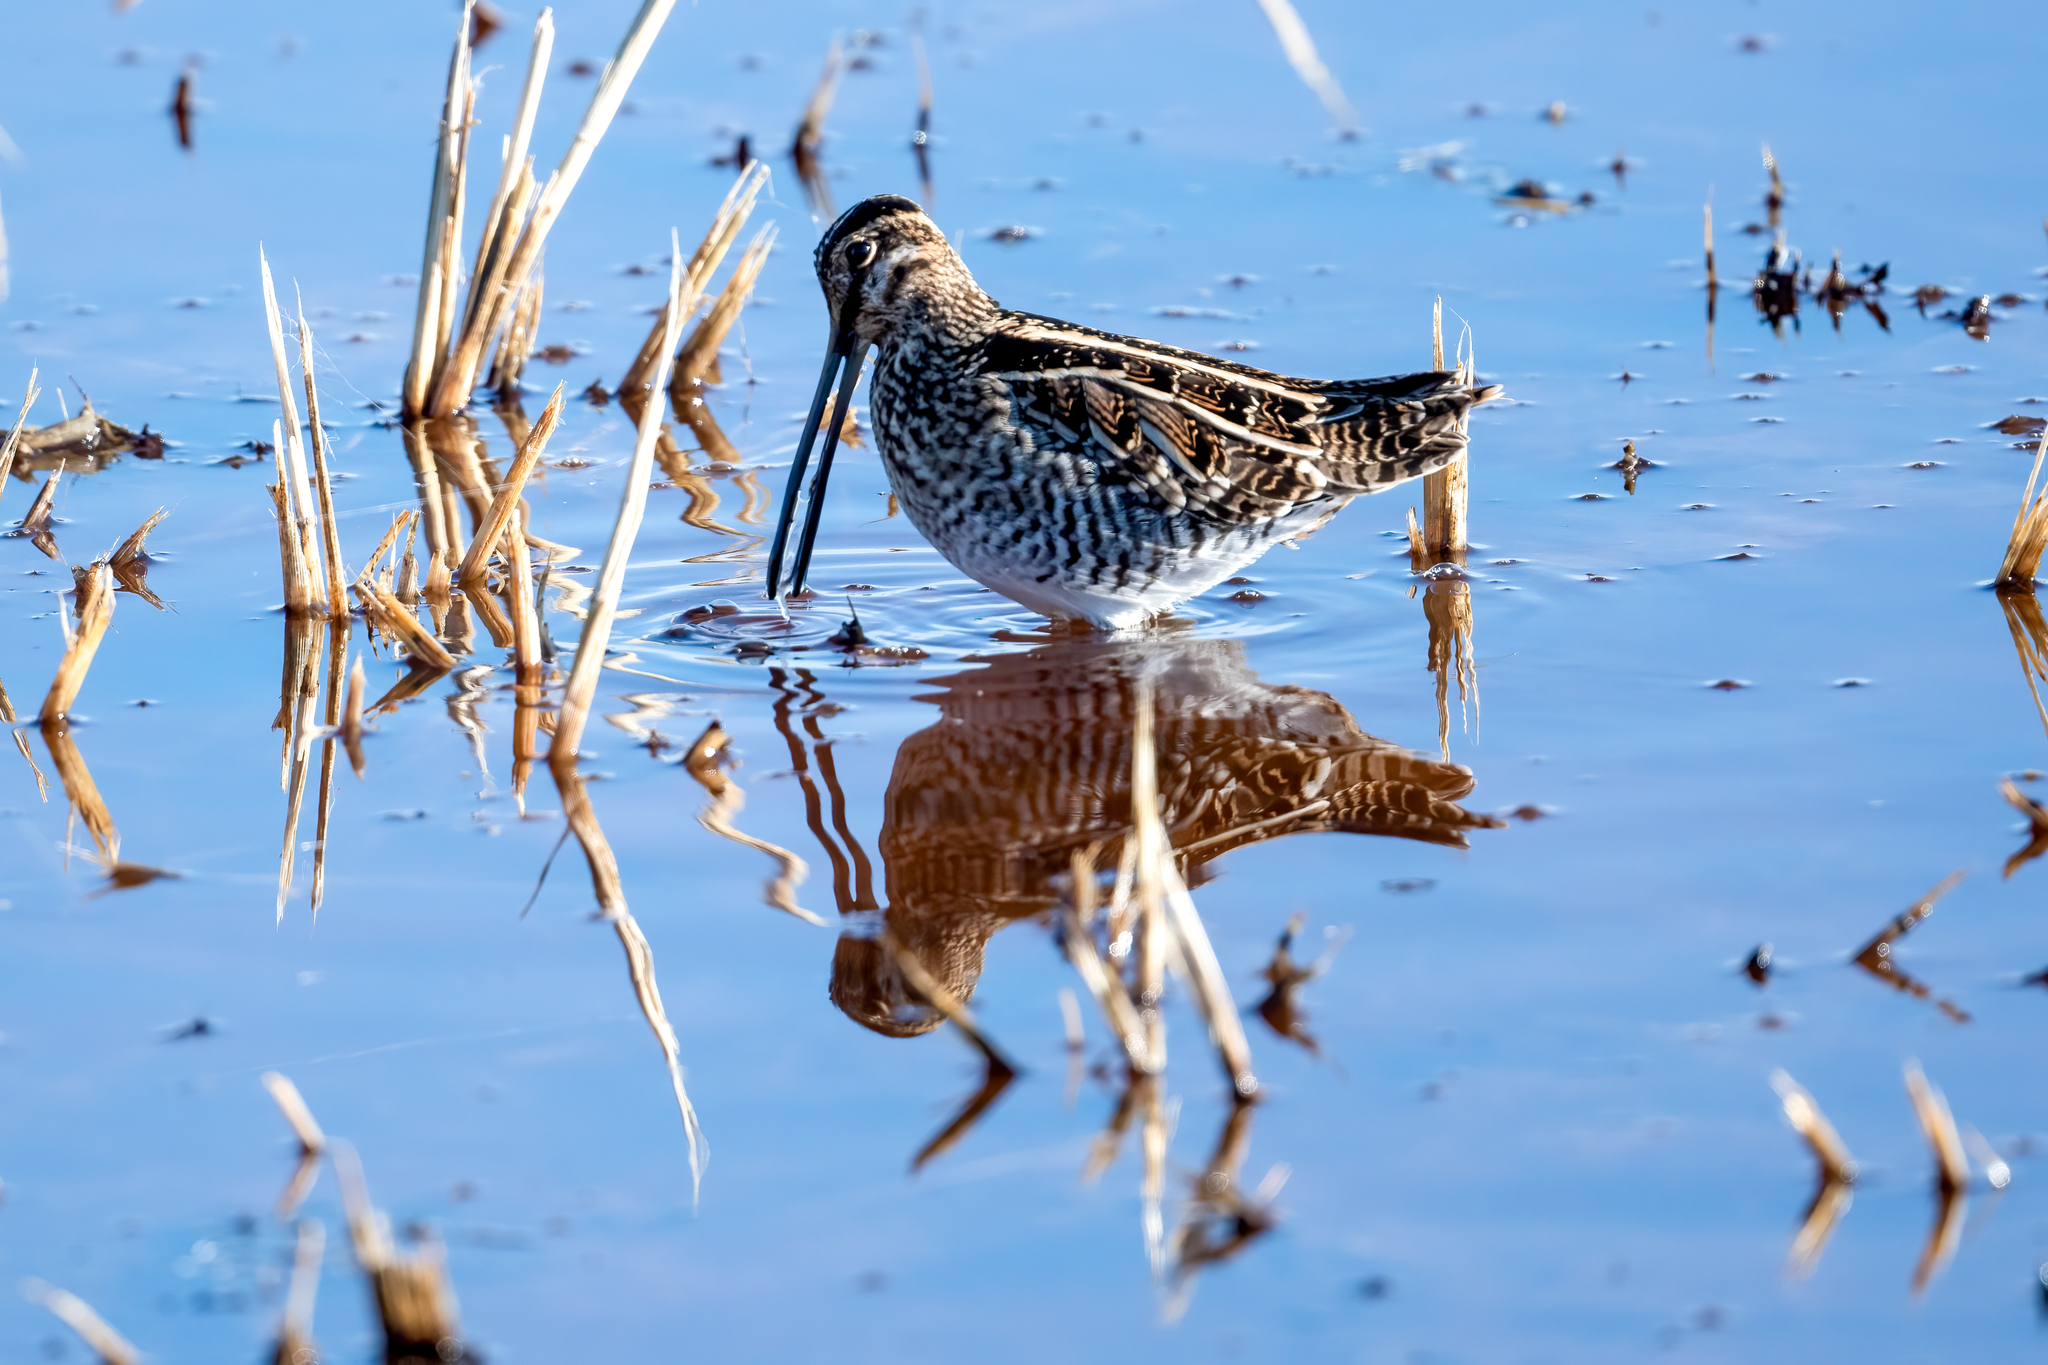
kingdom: Animalia
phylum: Chordata
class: Aves
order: Charadriiformes
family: Scolopacidae
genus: Gallinago
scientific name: Gallinago delicata
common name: Wilson's snipe
